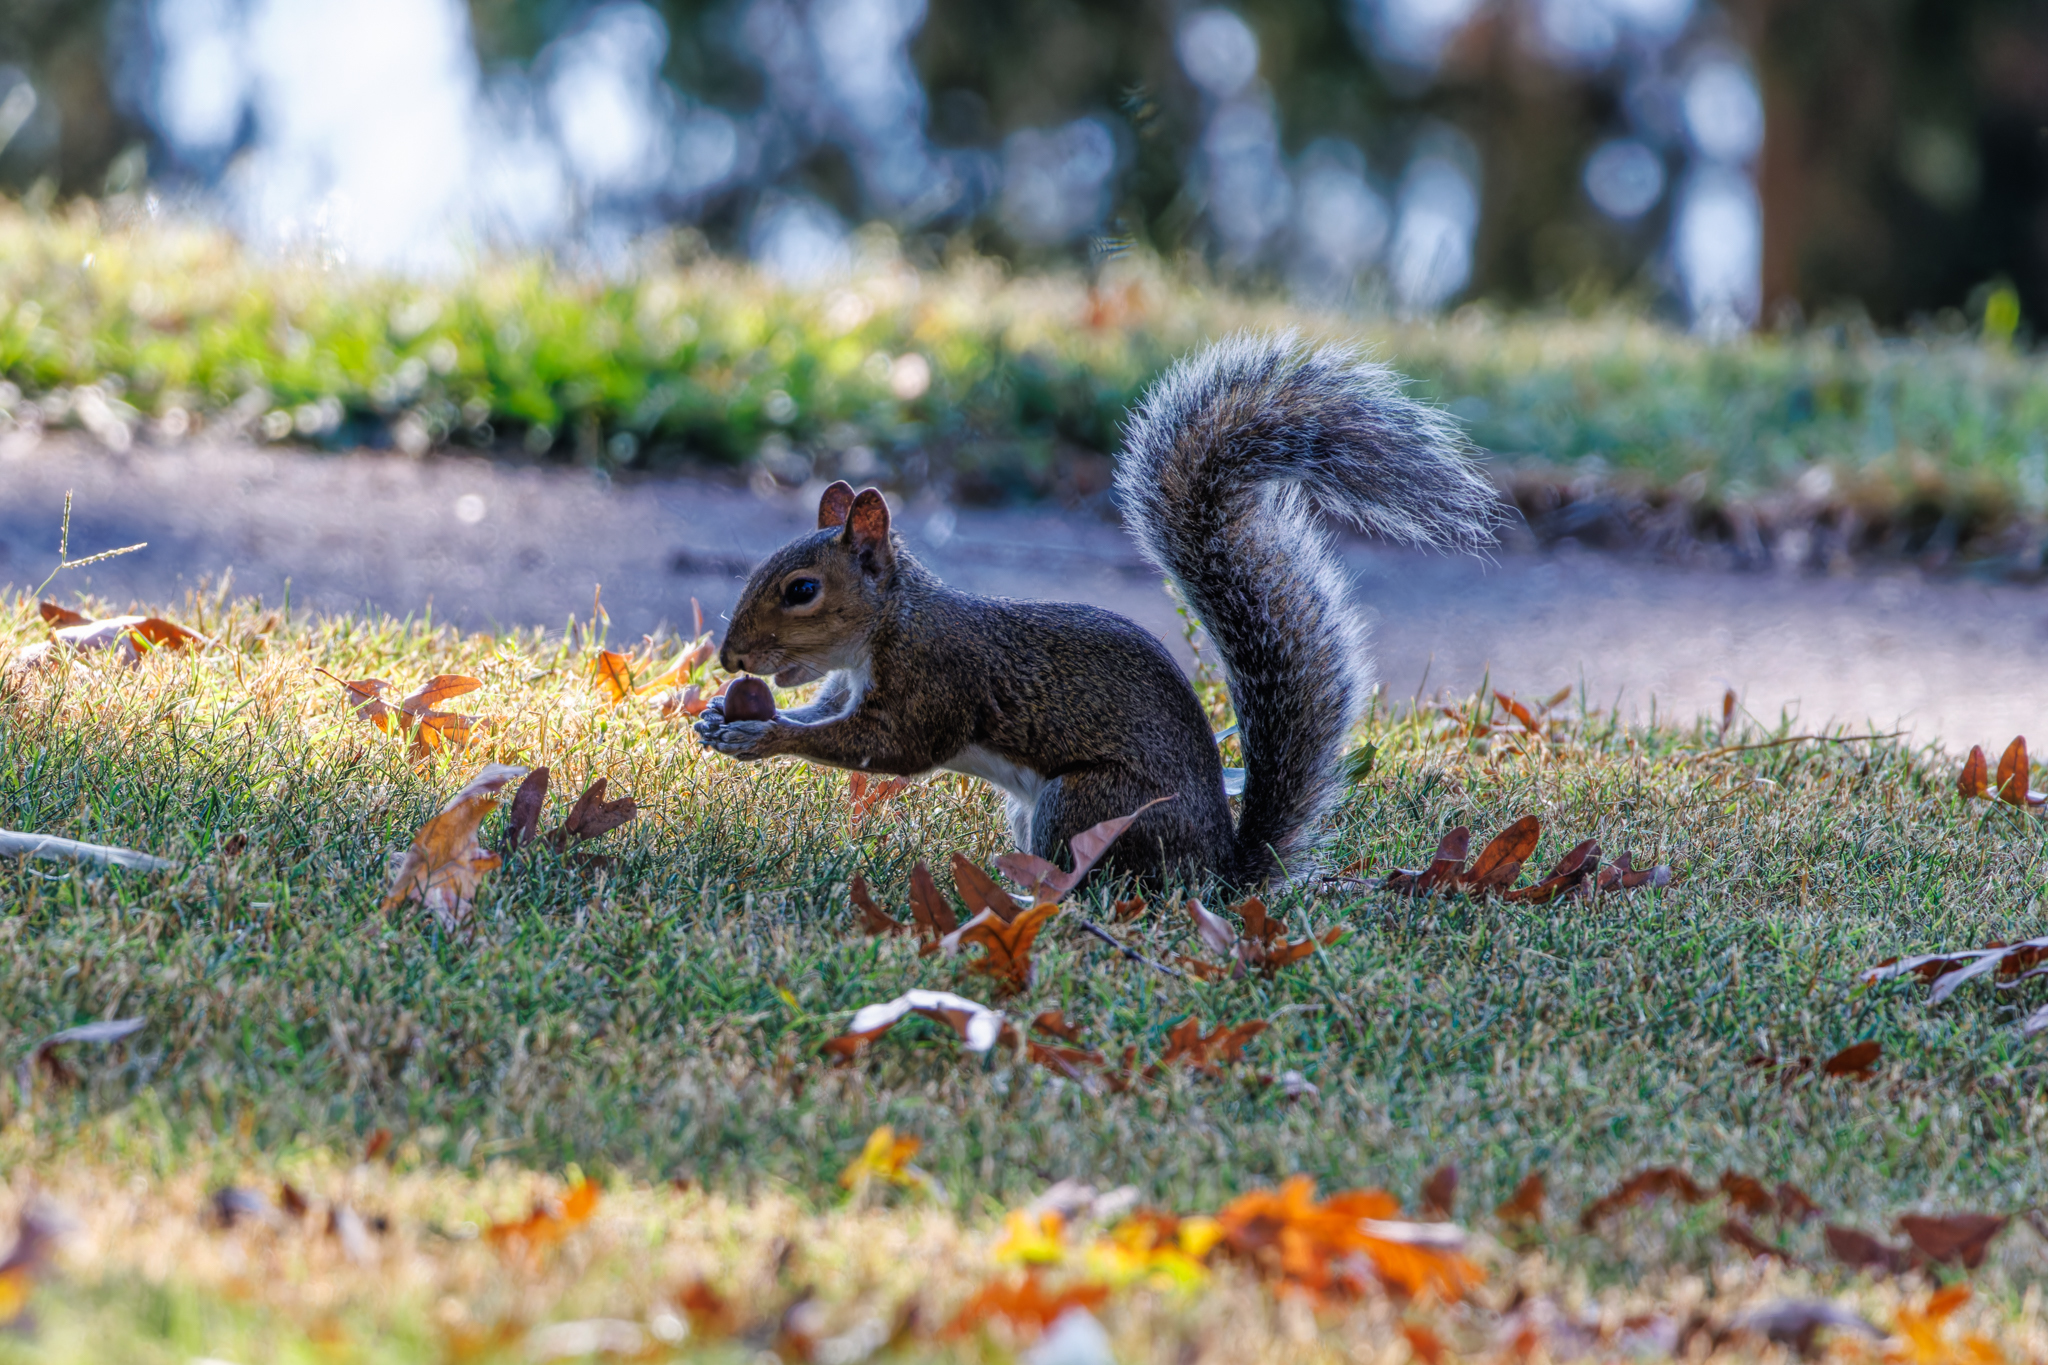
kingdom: Animalia
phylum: Chordata
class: Mammalia
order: Rodentia
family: Sciuridae
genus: Sciurus
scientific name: Sciurus carolinensis
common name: Eastern gray squirrel
